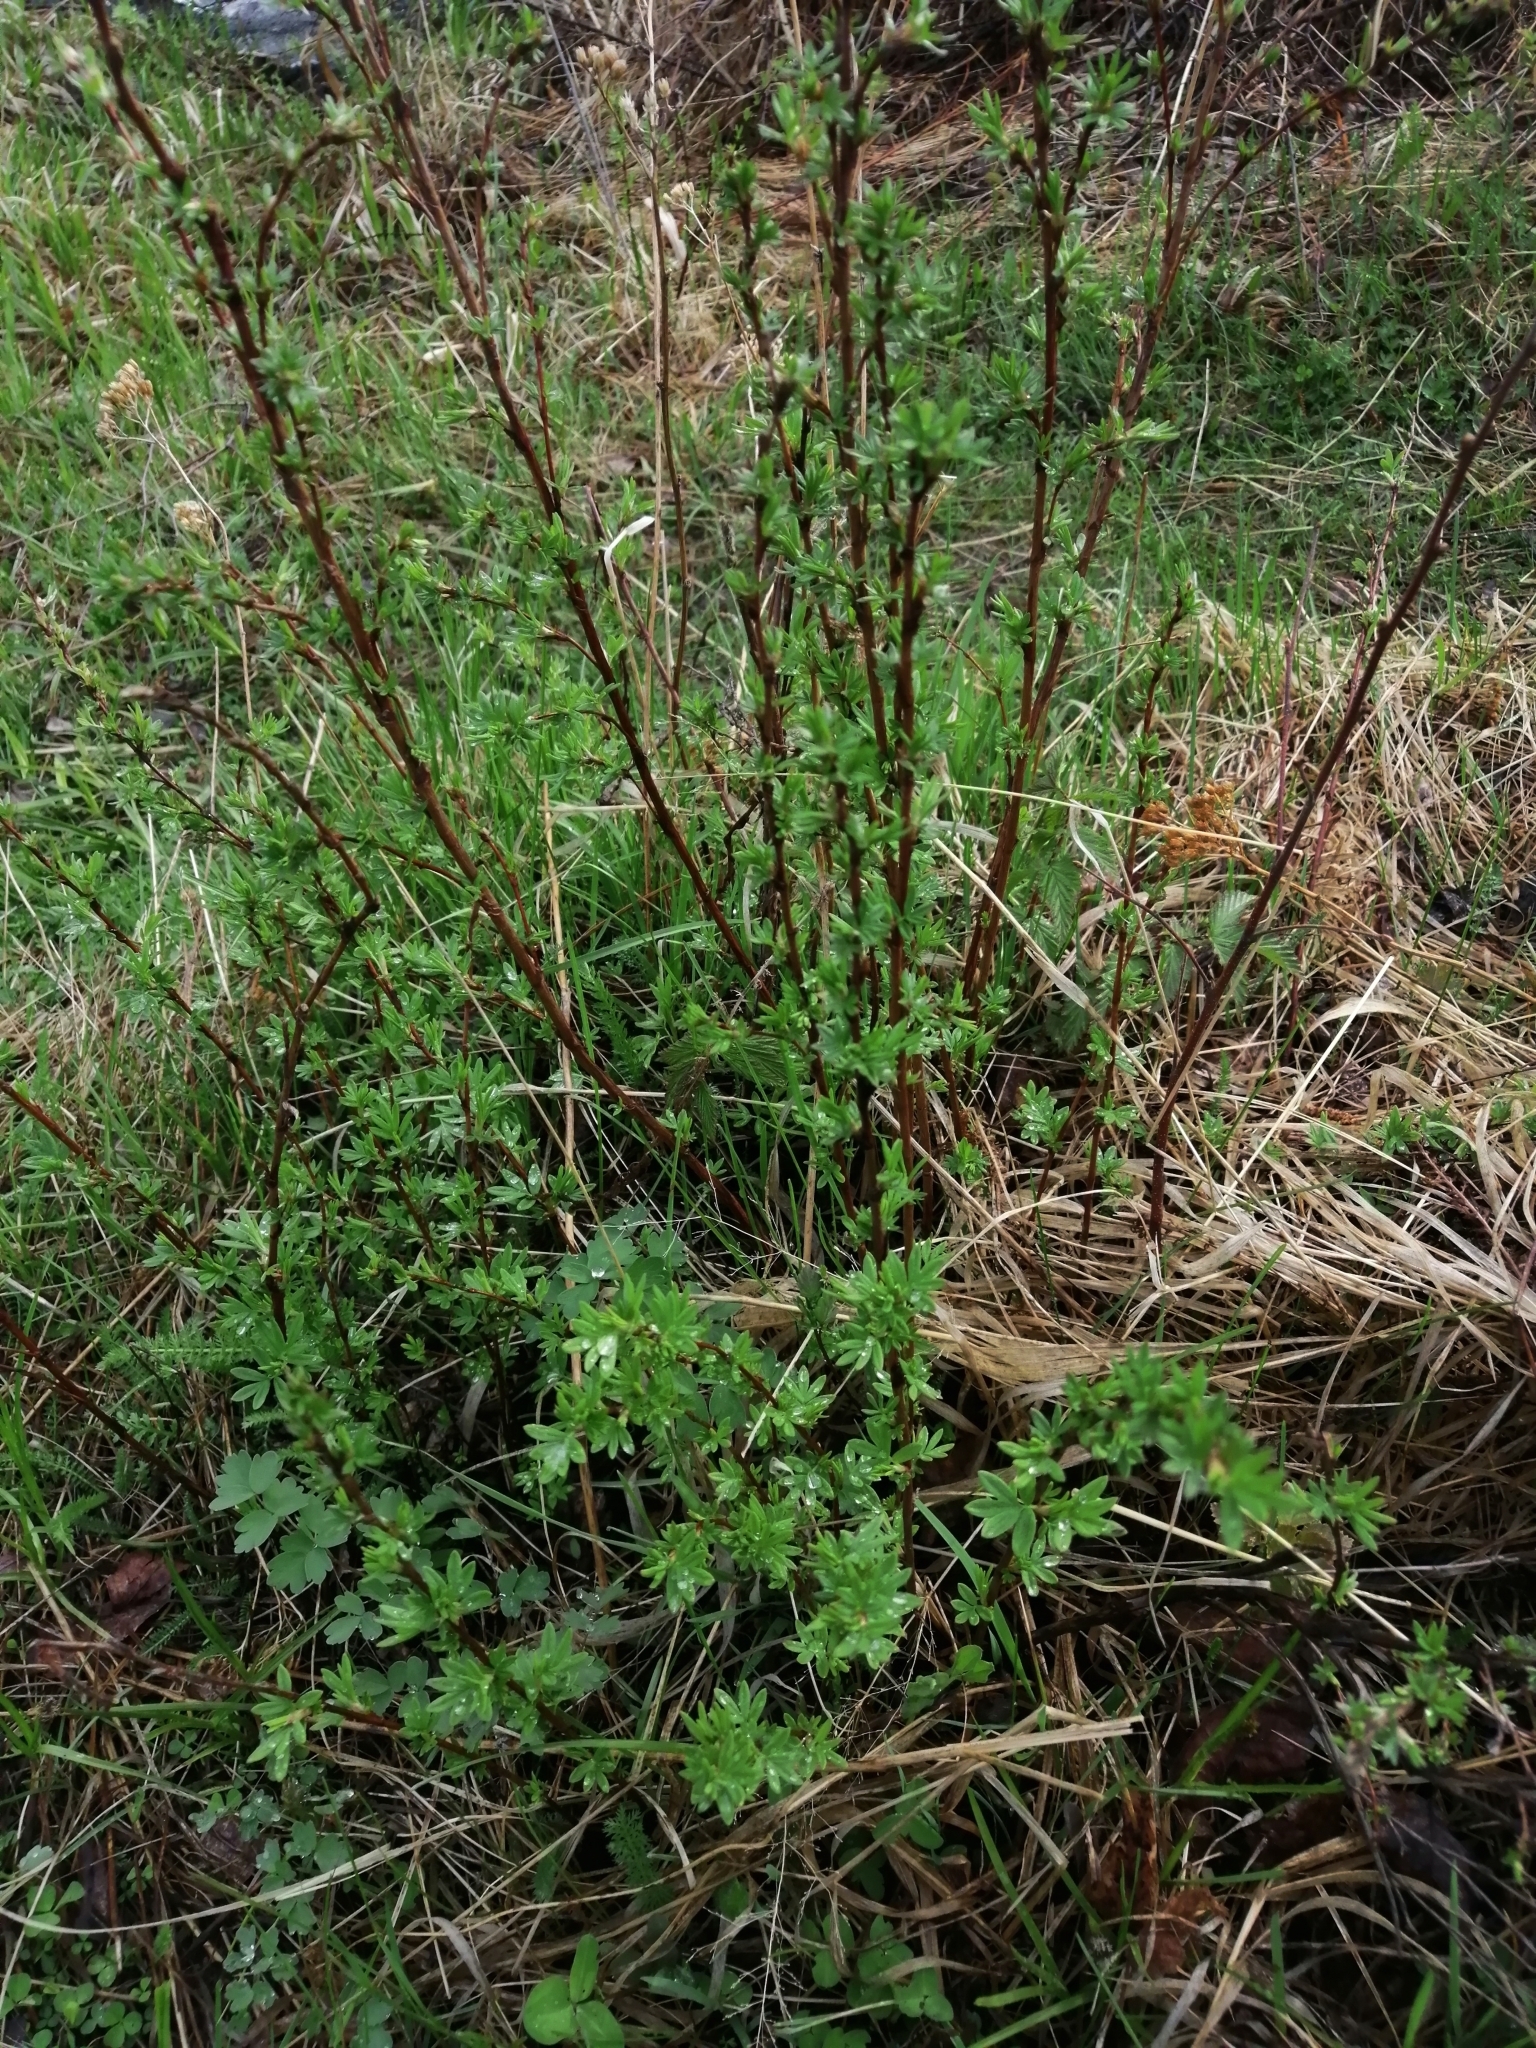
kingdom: Plantae
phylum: Tracheophyta
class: Magnoliopsida
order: Rosales
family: Rosaceae
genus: Dasiphora
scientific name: Dasiphora fruticosa
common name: Shrubby cinquefoil
